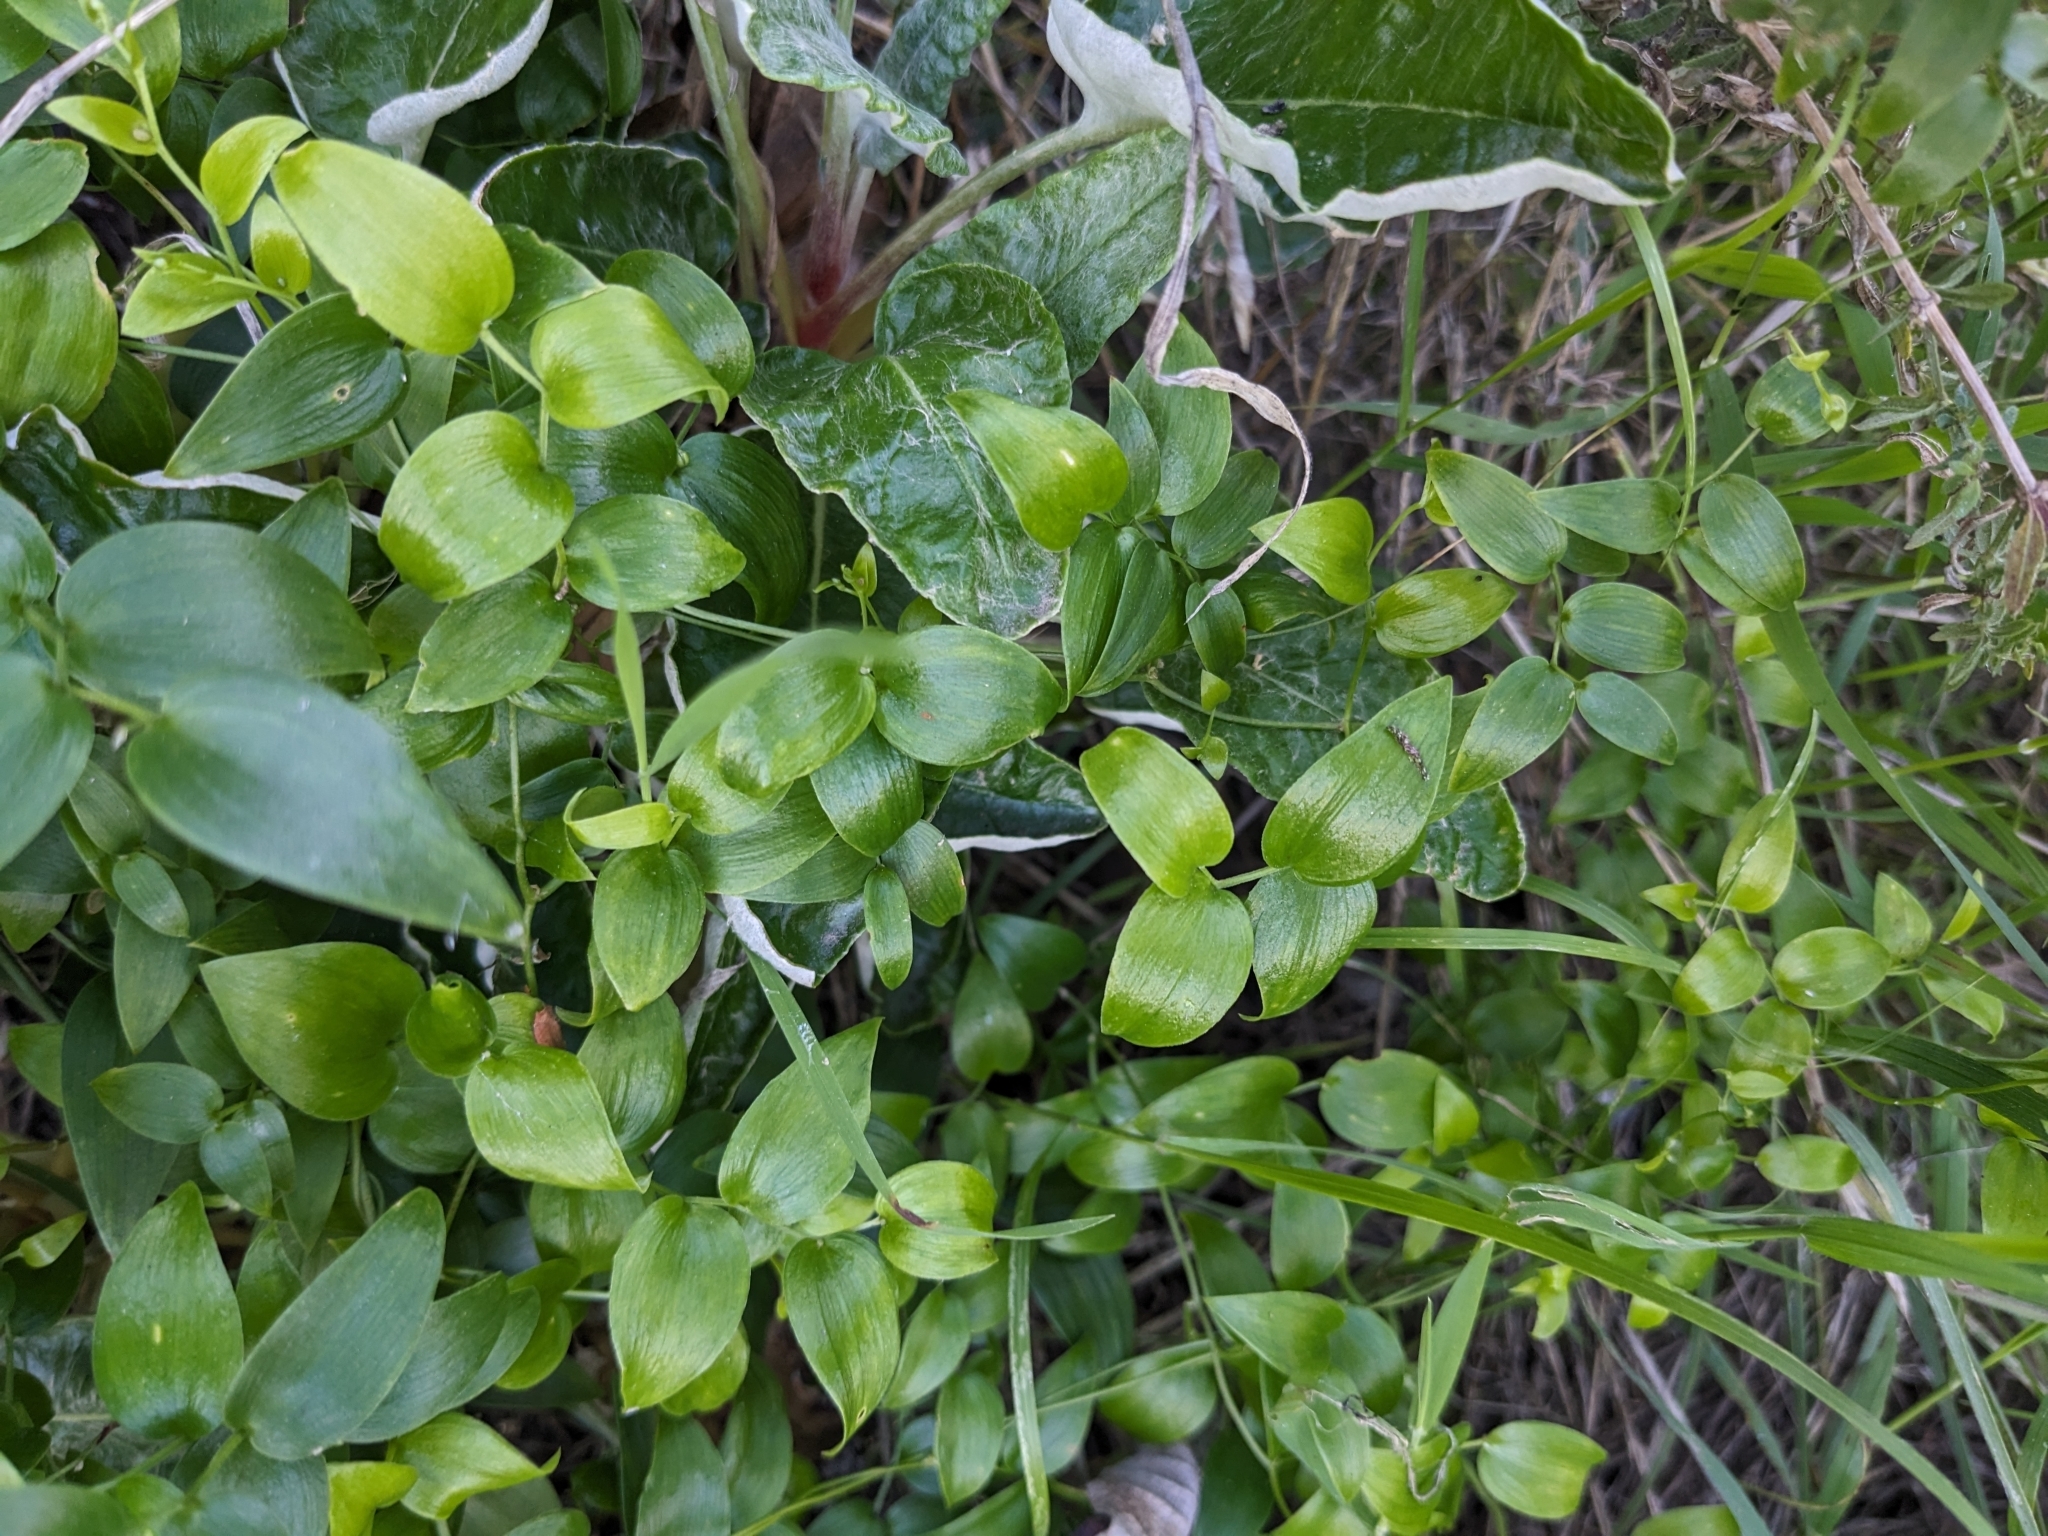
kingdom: Plantae
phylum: Tracheophyta
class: Liliopsida
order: Asparagales
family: Asparagaceae
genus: Asparagus
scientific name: Asparagus asparagoides
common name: African asparagus fern
